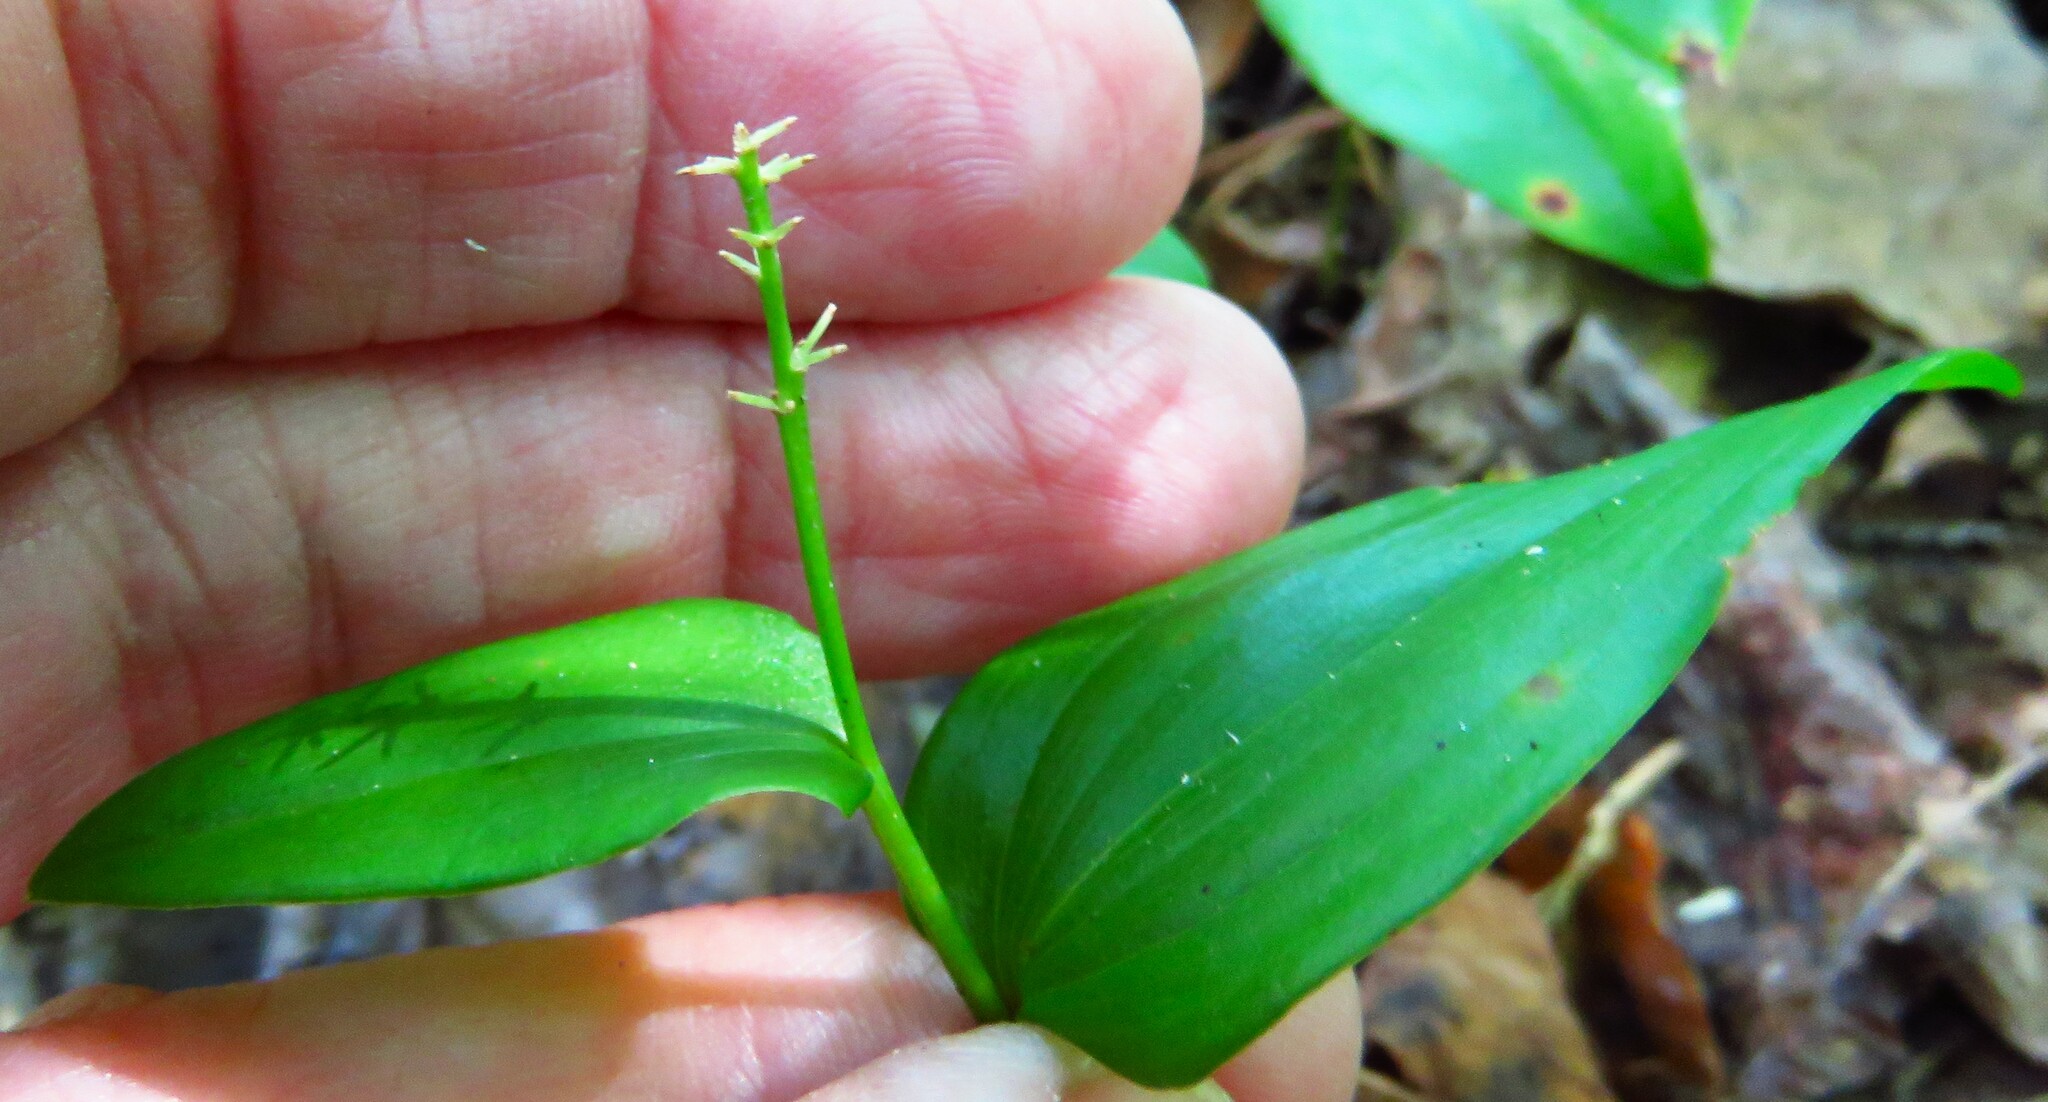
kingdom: Plantae
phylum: Tracheophyta
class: Liliopsida
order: Asparagales
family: Asparagaceae
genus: Maianthemum
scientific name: Maianthemum canadense
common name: False lily-of-the-valley
